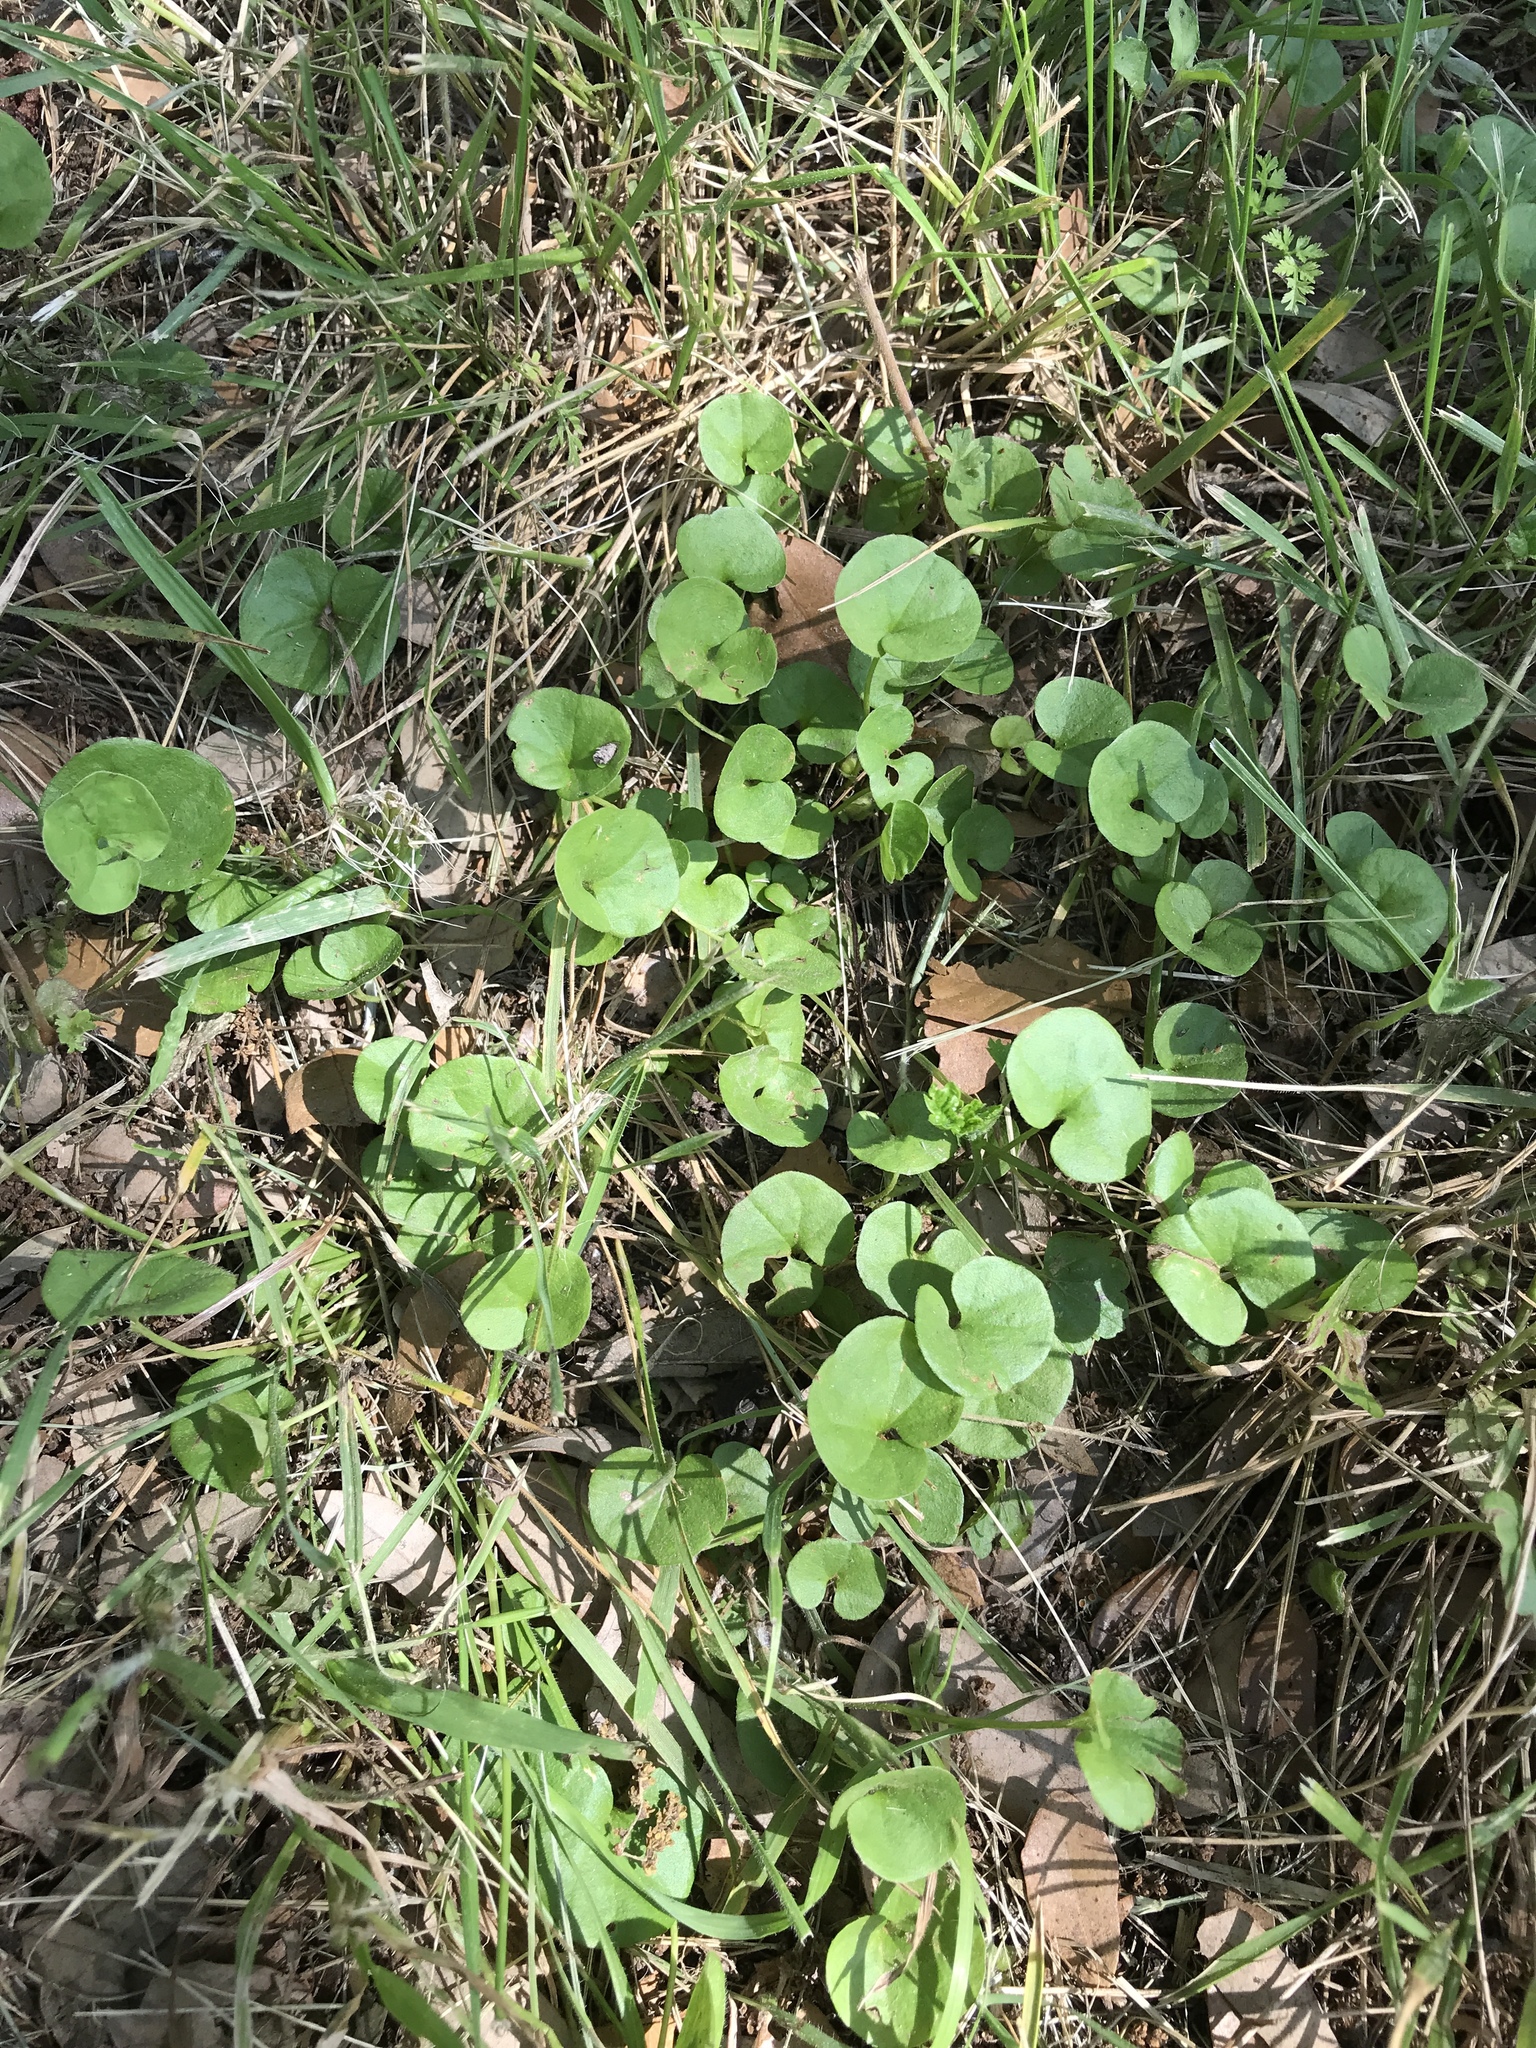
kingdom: Plantae
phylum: Tracheophyta
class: Magnoliopsida
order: Solanales
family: Convolvulaceae
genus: Dichondra
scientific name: Dichondra carolinensis
